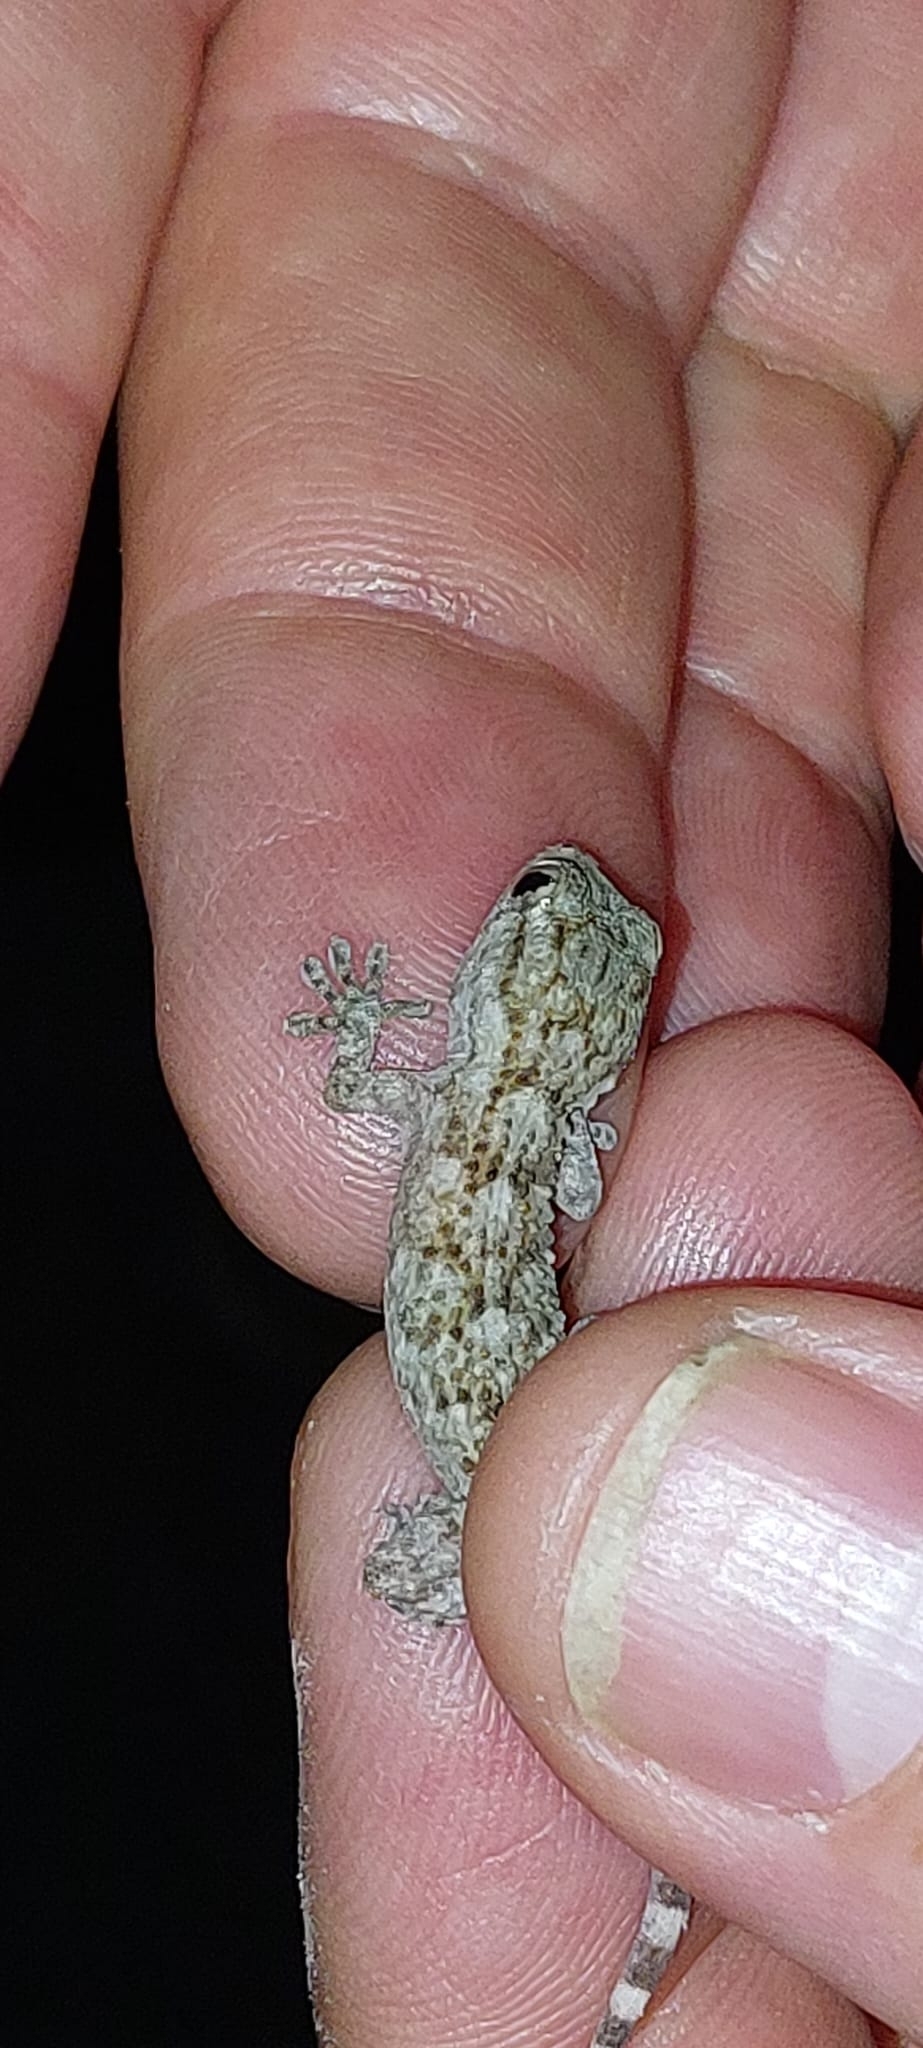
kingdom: Animalia
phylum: Chordata
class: Squamata
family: Phyllodactylidae
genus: Tarentola
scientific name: Tarentola mauritanica
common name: Moorish gecko
